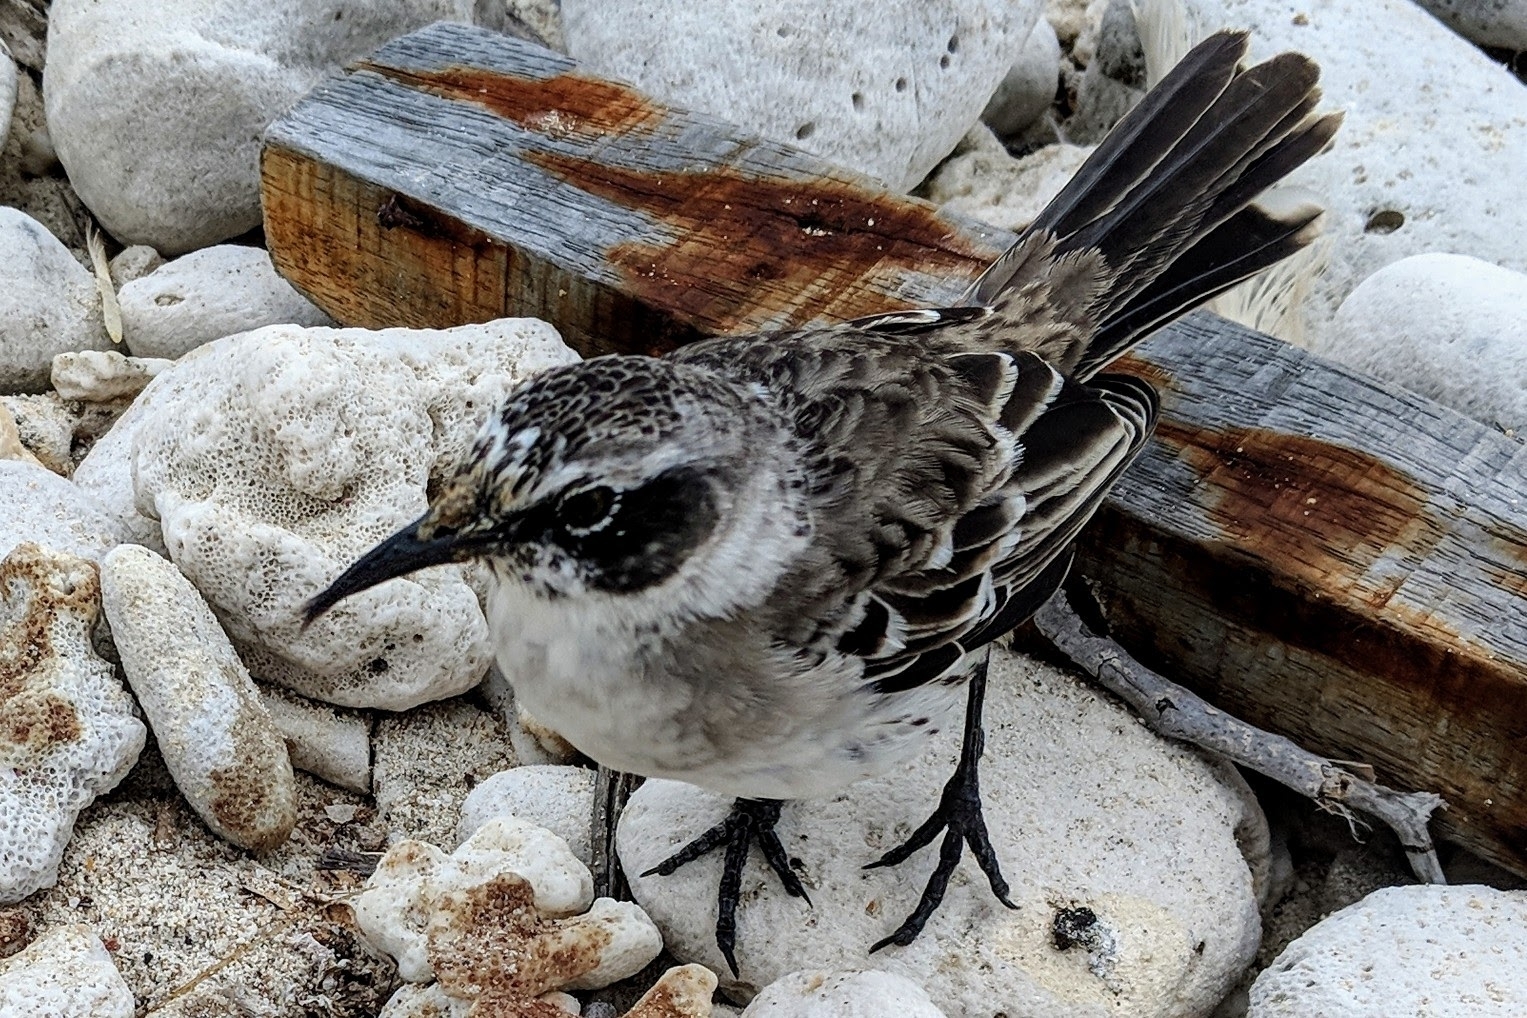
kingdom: Animalia
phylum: Chordata
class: Aves
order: Passeriformes
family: Mimidae
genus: Mimus
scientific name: Mimus parvulus
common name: Galapagos mockingbird
